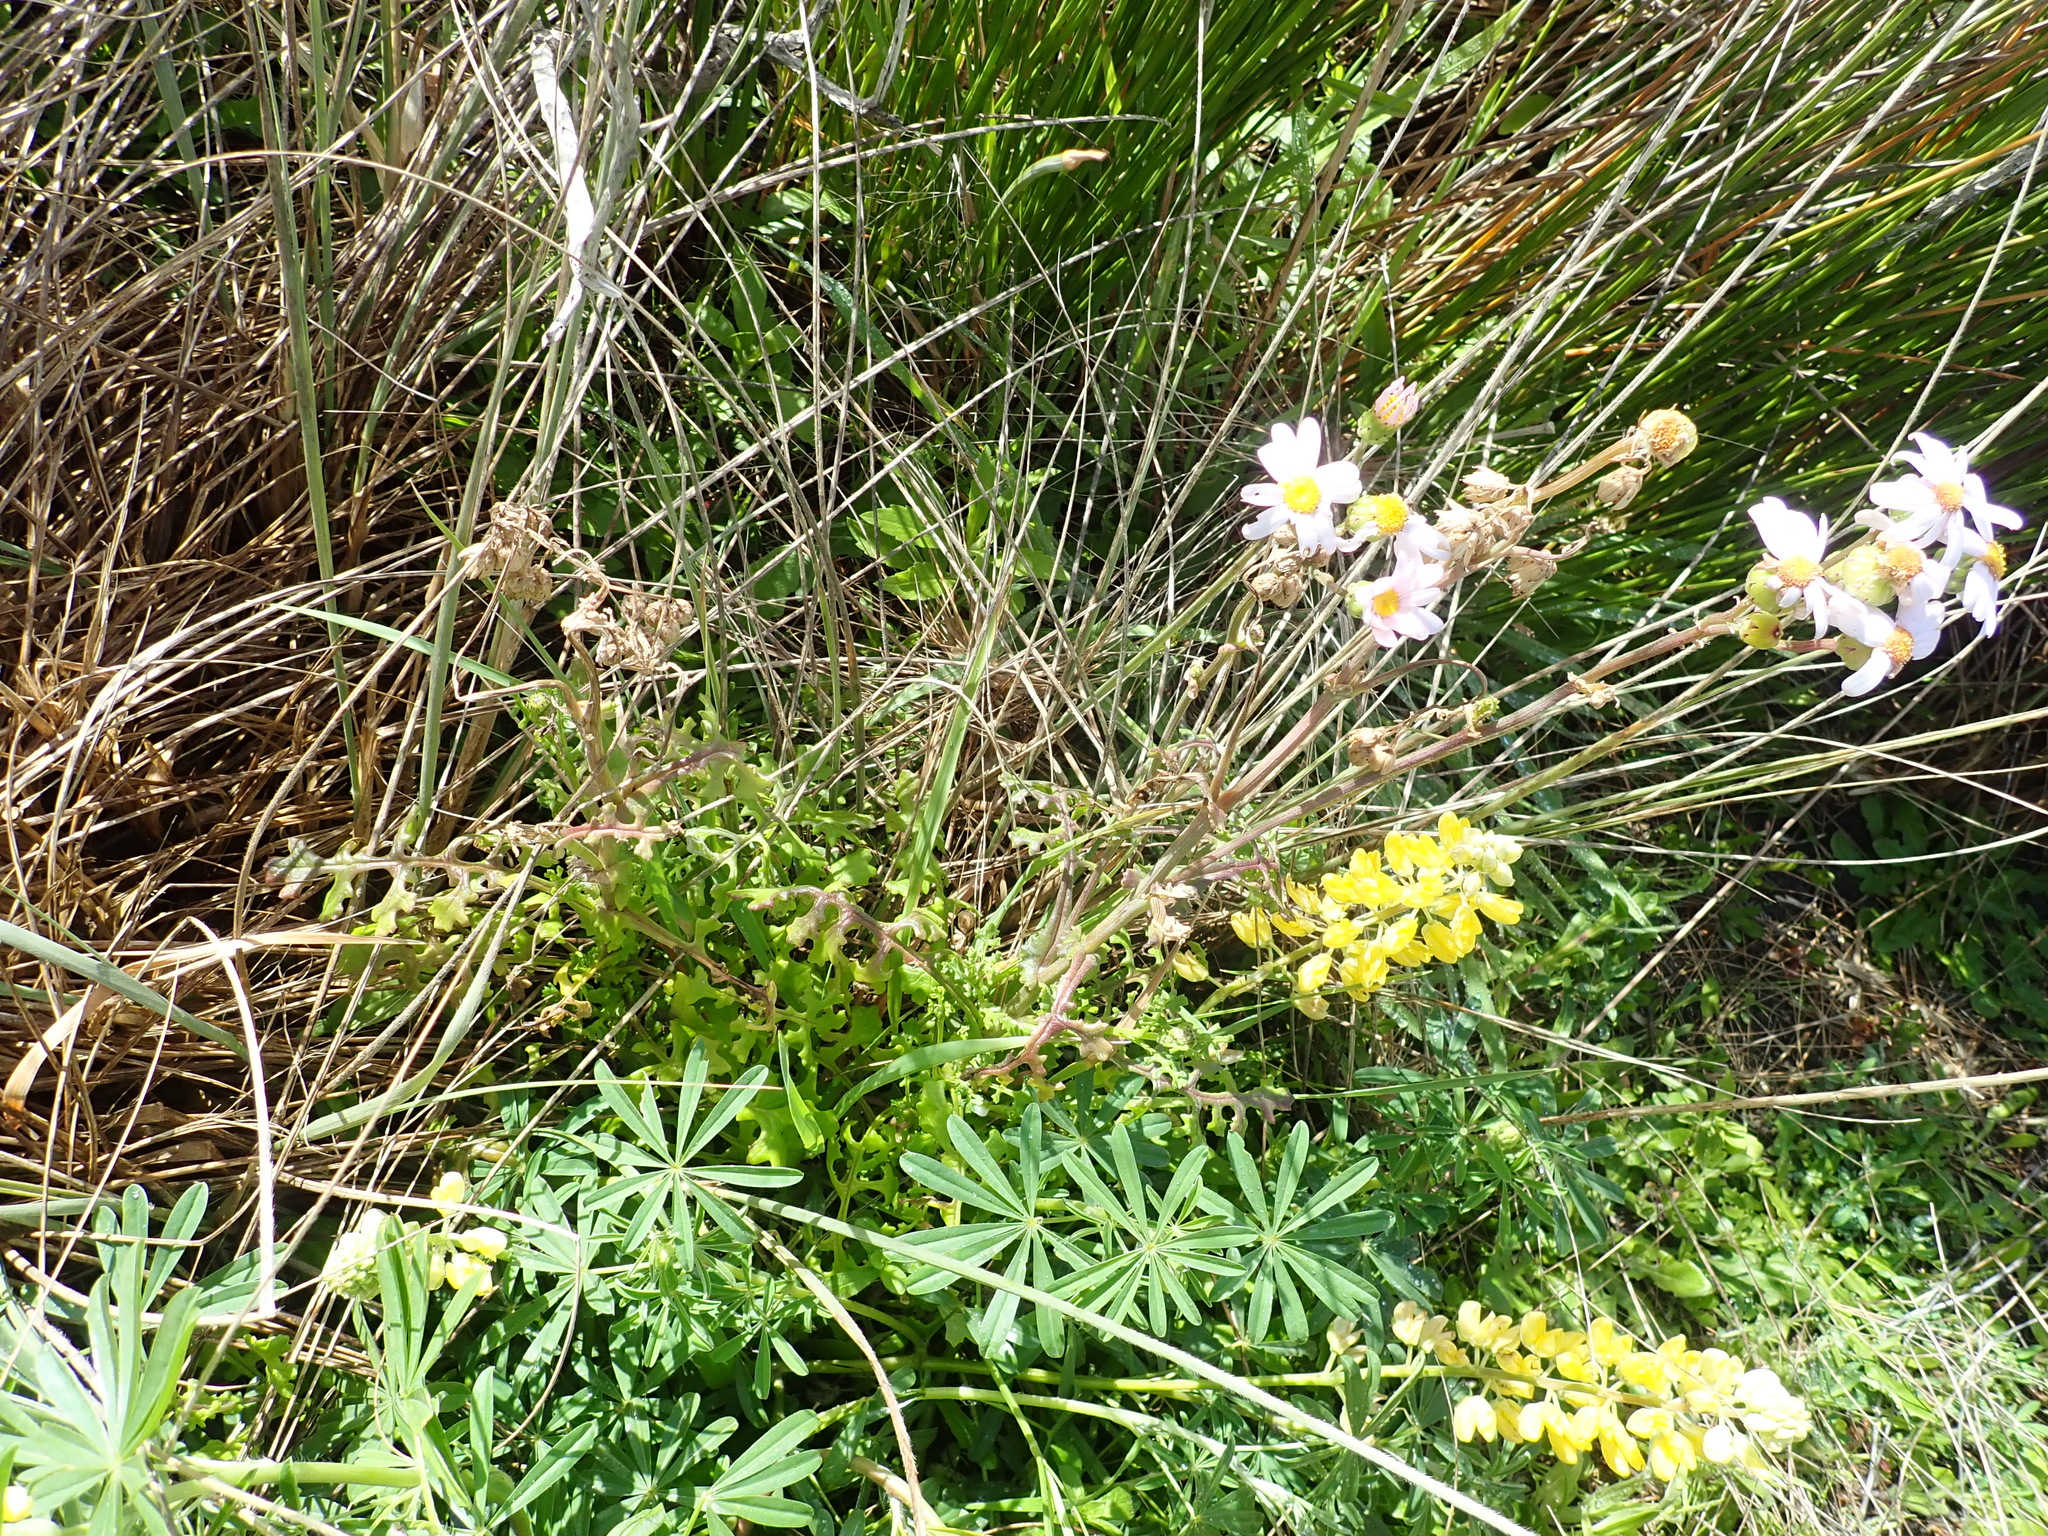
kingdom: Plantae
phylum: Tracheophyta
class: Magnoliopsida
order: Asterales
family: Asteraceae
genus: Senecio
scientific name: Senecio elegans
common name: Purple groundsel
